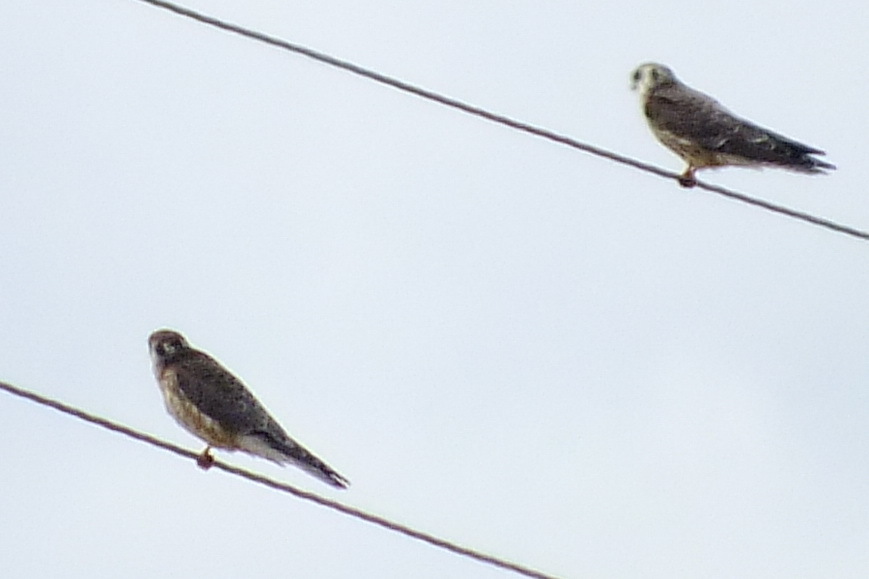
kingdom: Animalia
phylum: Chordata
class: Aves
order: Falconiformes
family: Falconidae
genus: Falco
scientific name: Falco vespertinus
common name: Red-footed falcon
